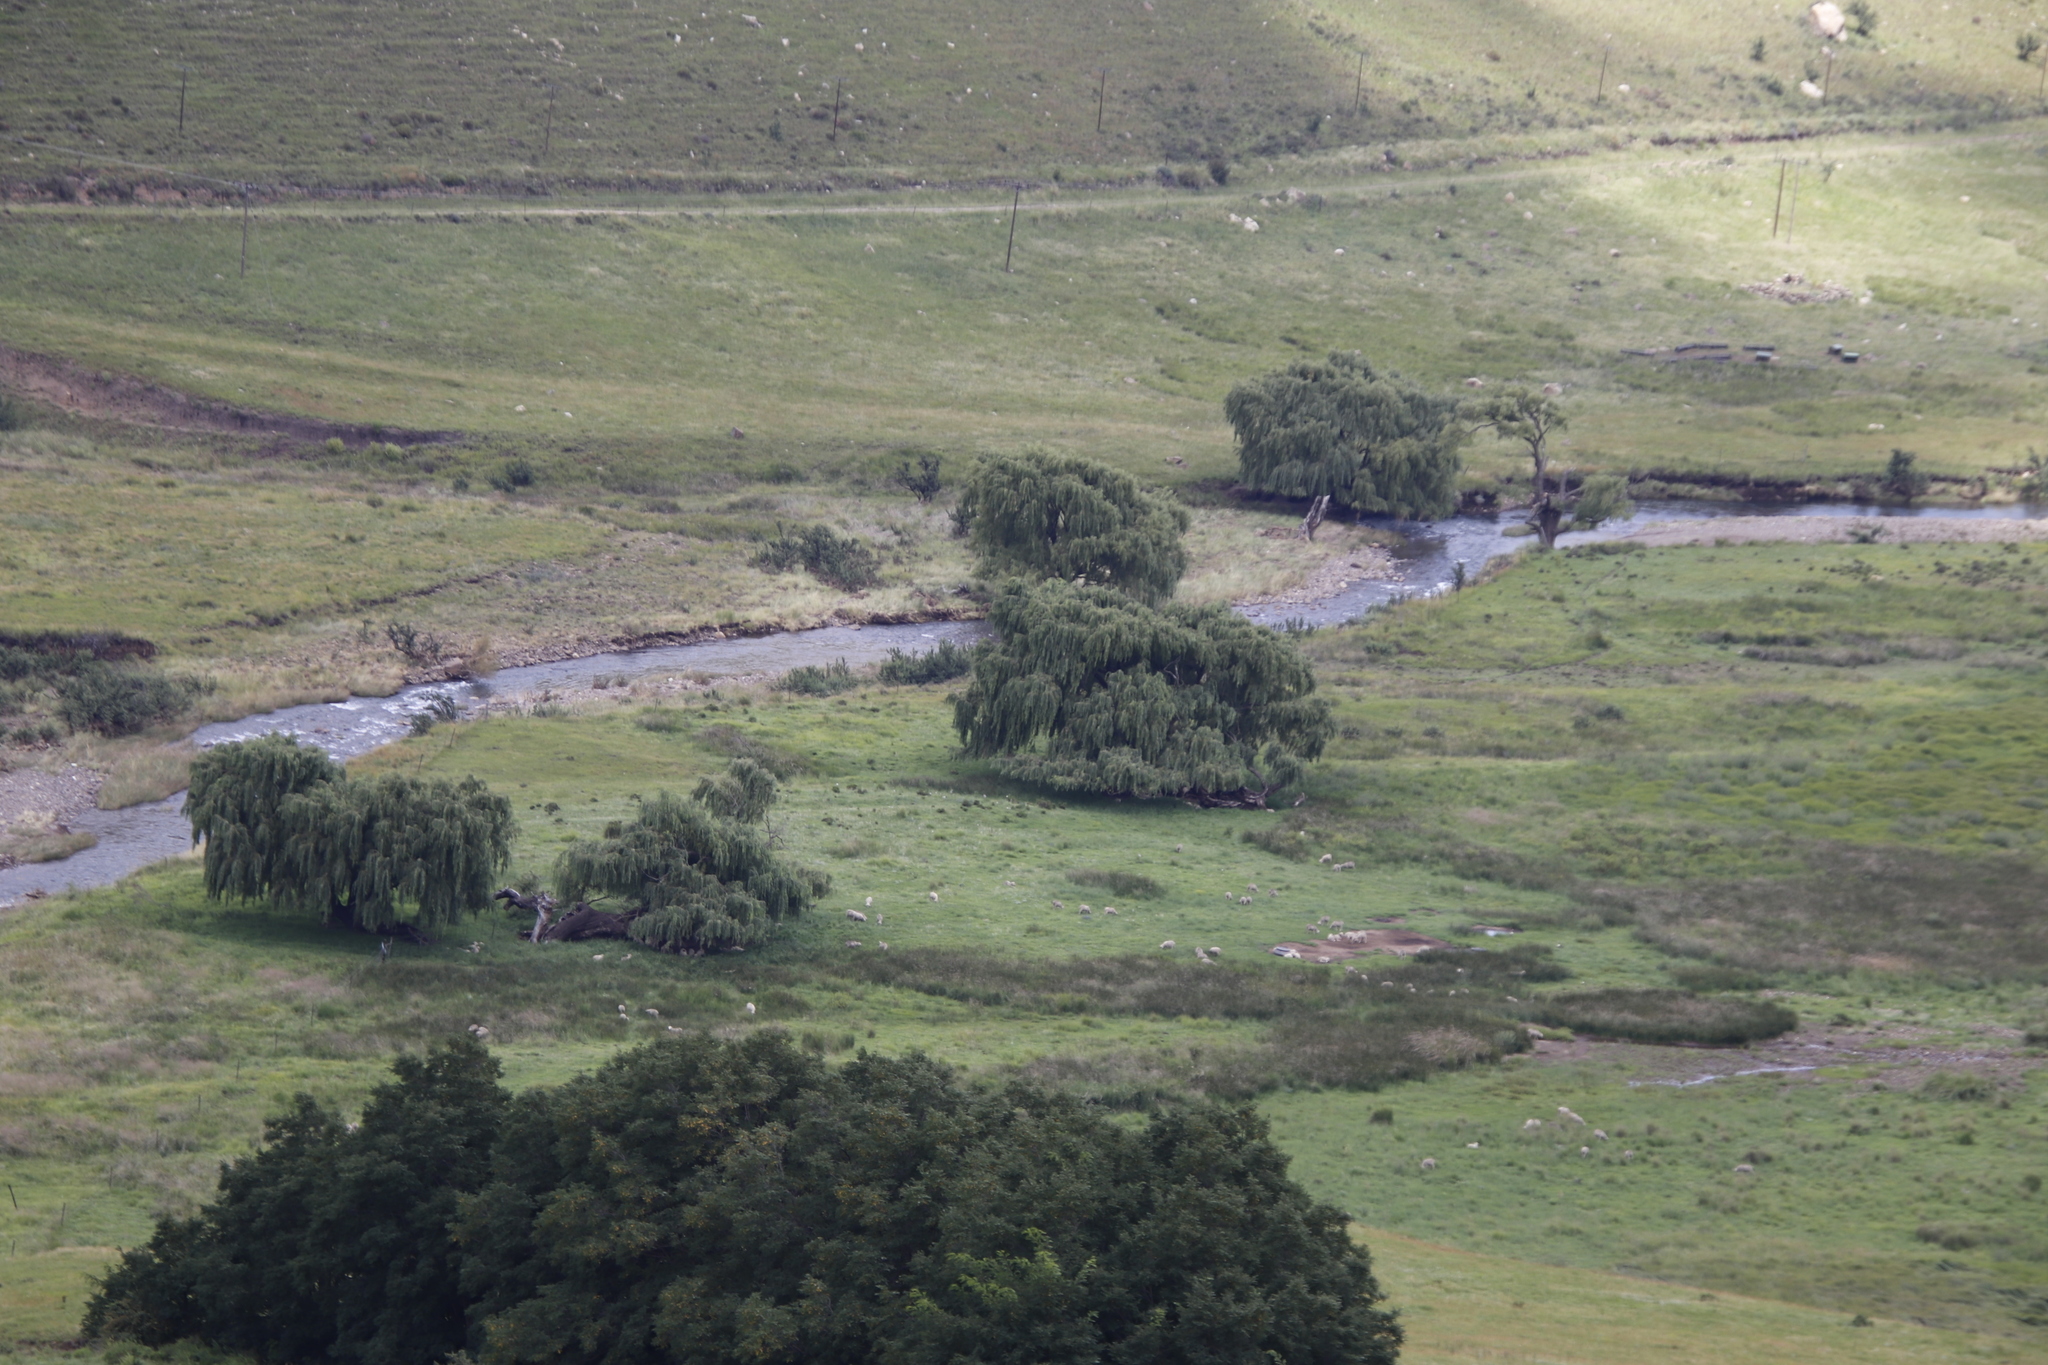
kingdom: Plantae
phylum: Tracheophyta
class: Magnoliopsida
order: Malpighiales
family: Salicaceae
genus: Salix
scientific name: Salix babylonica
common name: Weeping willow
